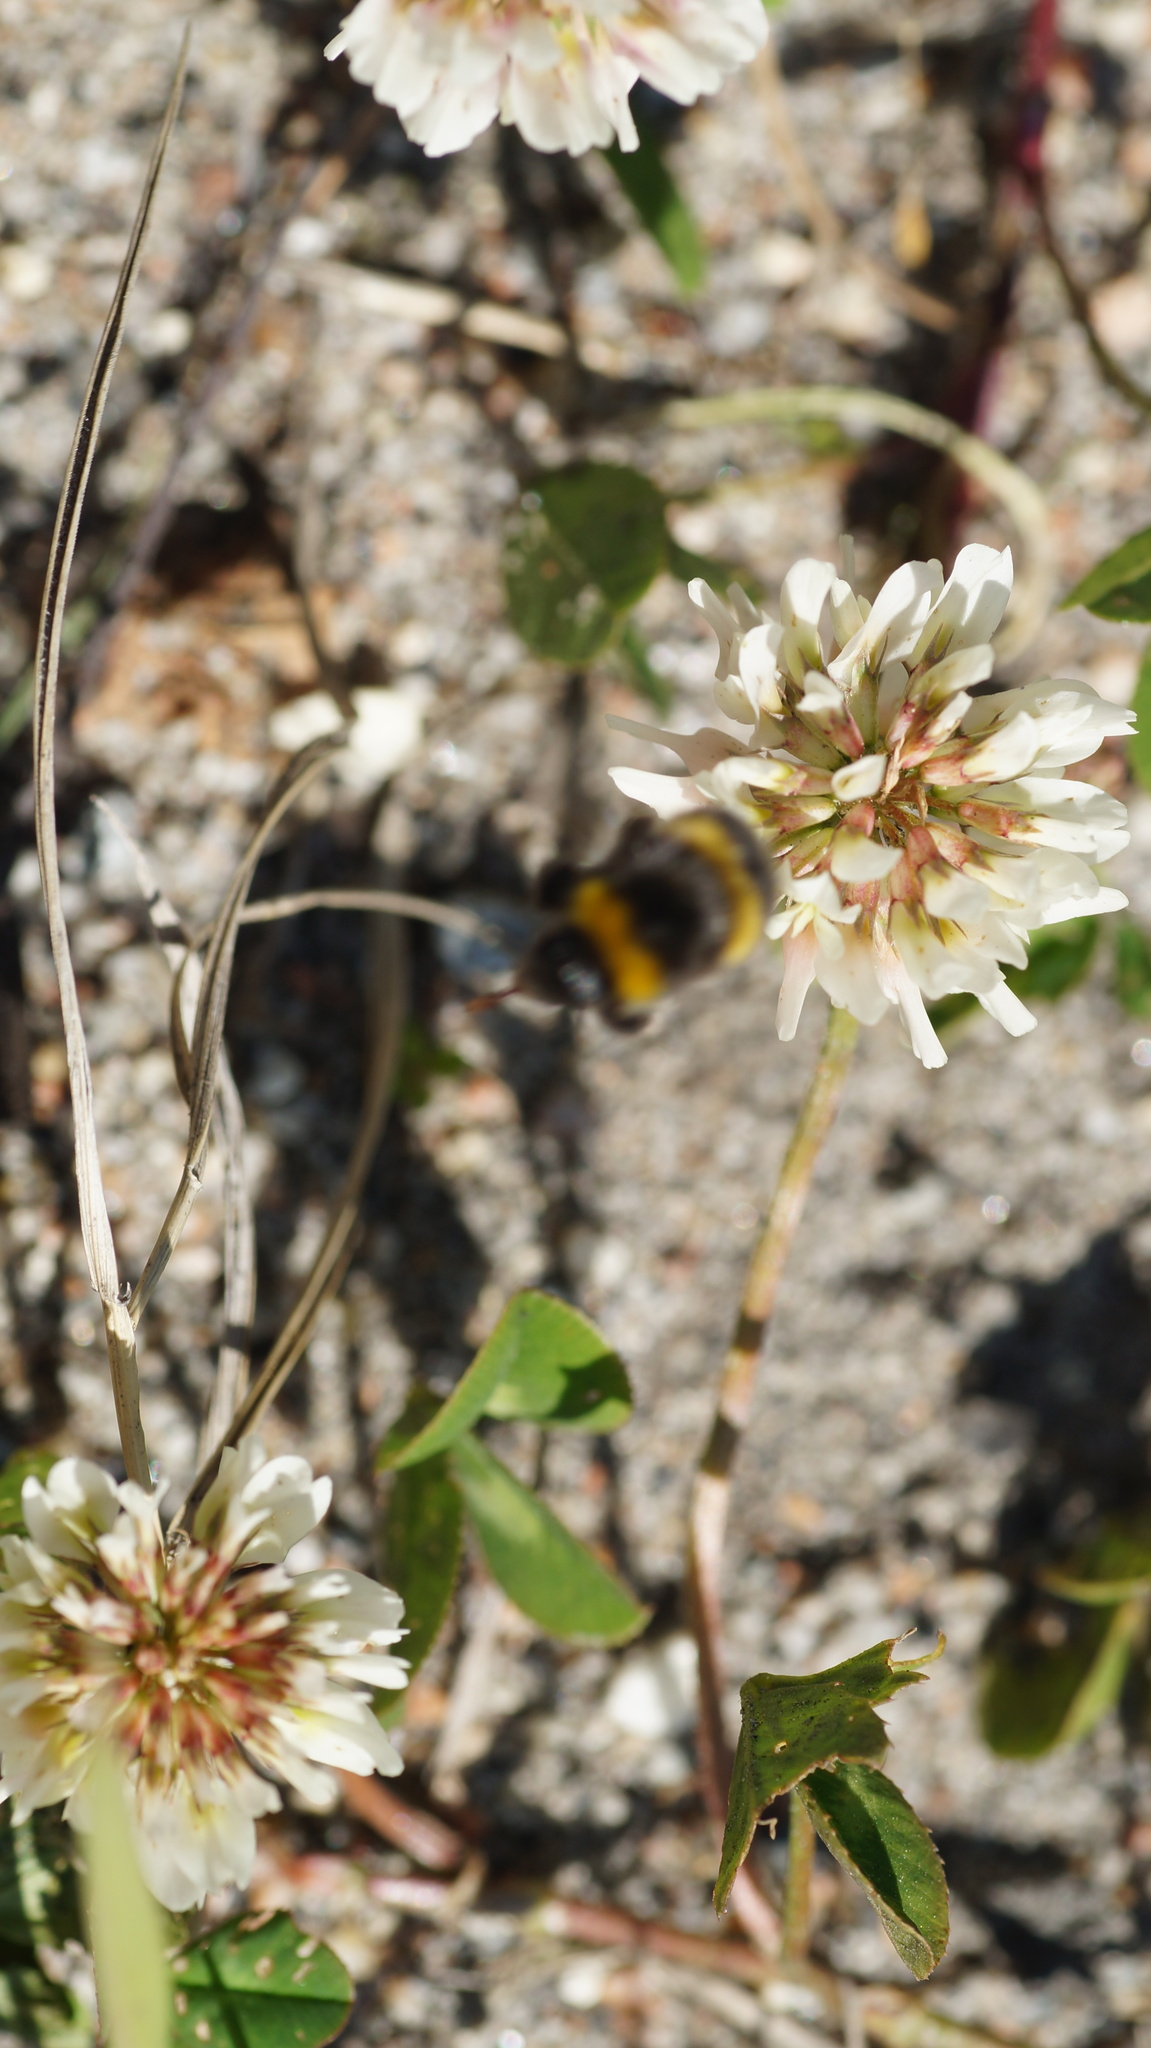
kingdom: Animalia
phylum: Arthropoda
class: Insecta
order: Hymenoptera
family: Apidae
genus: Bombus
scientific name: Bombus
